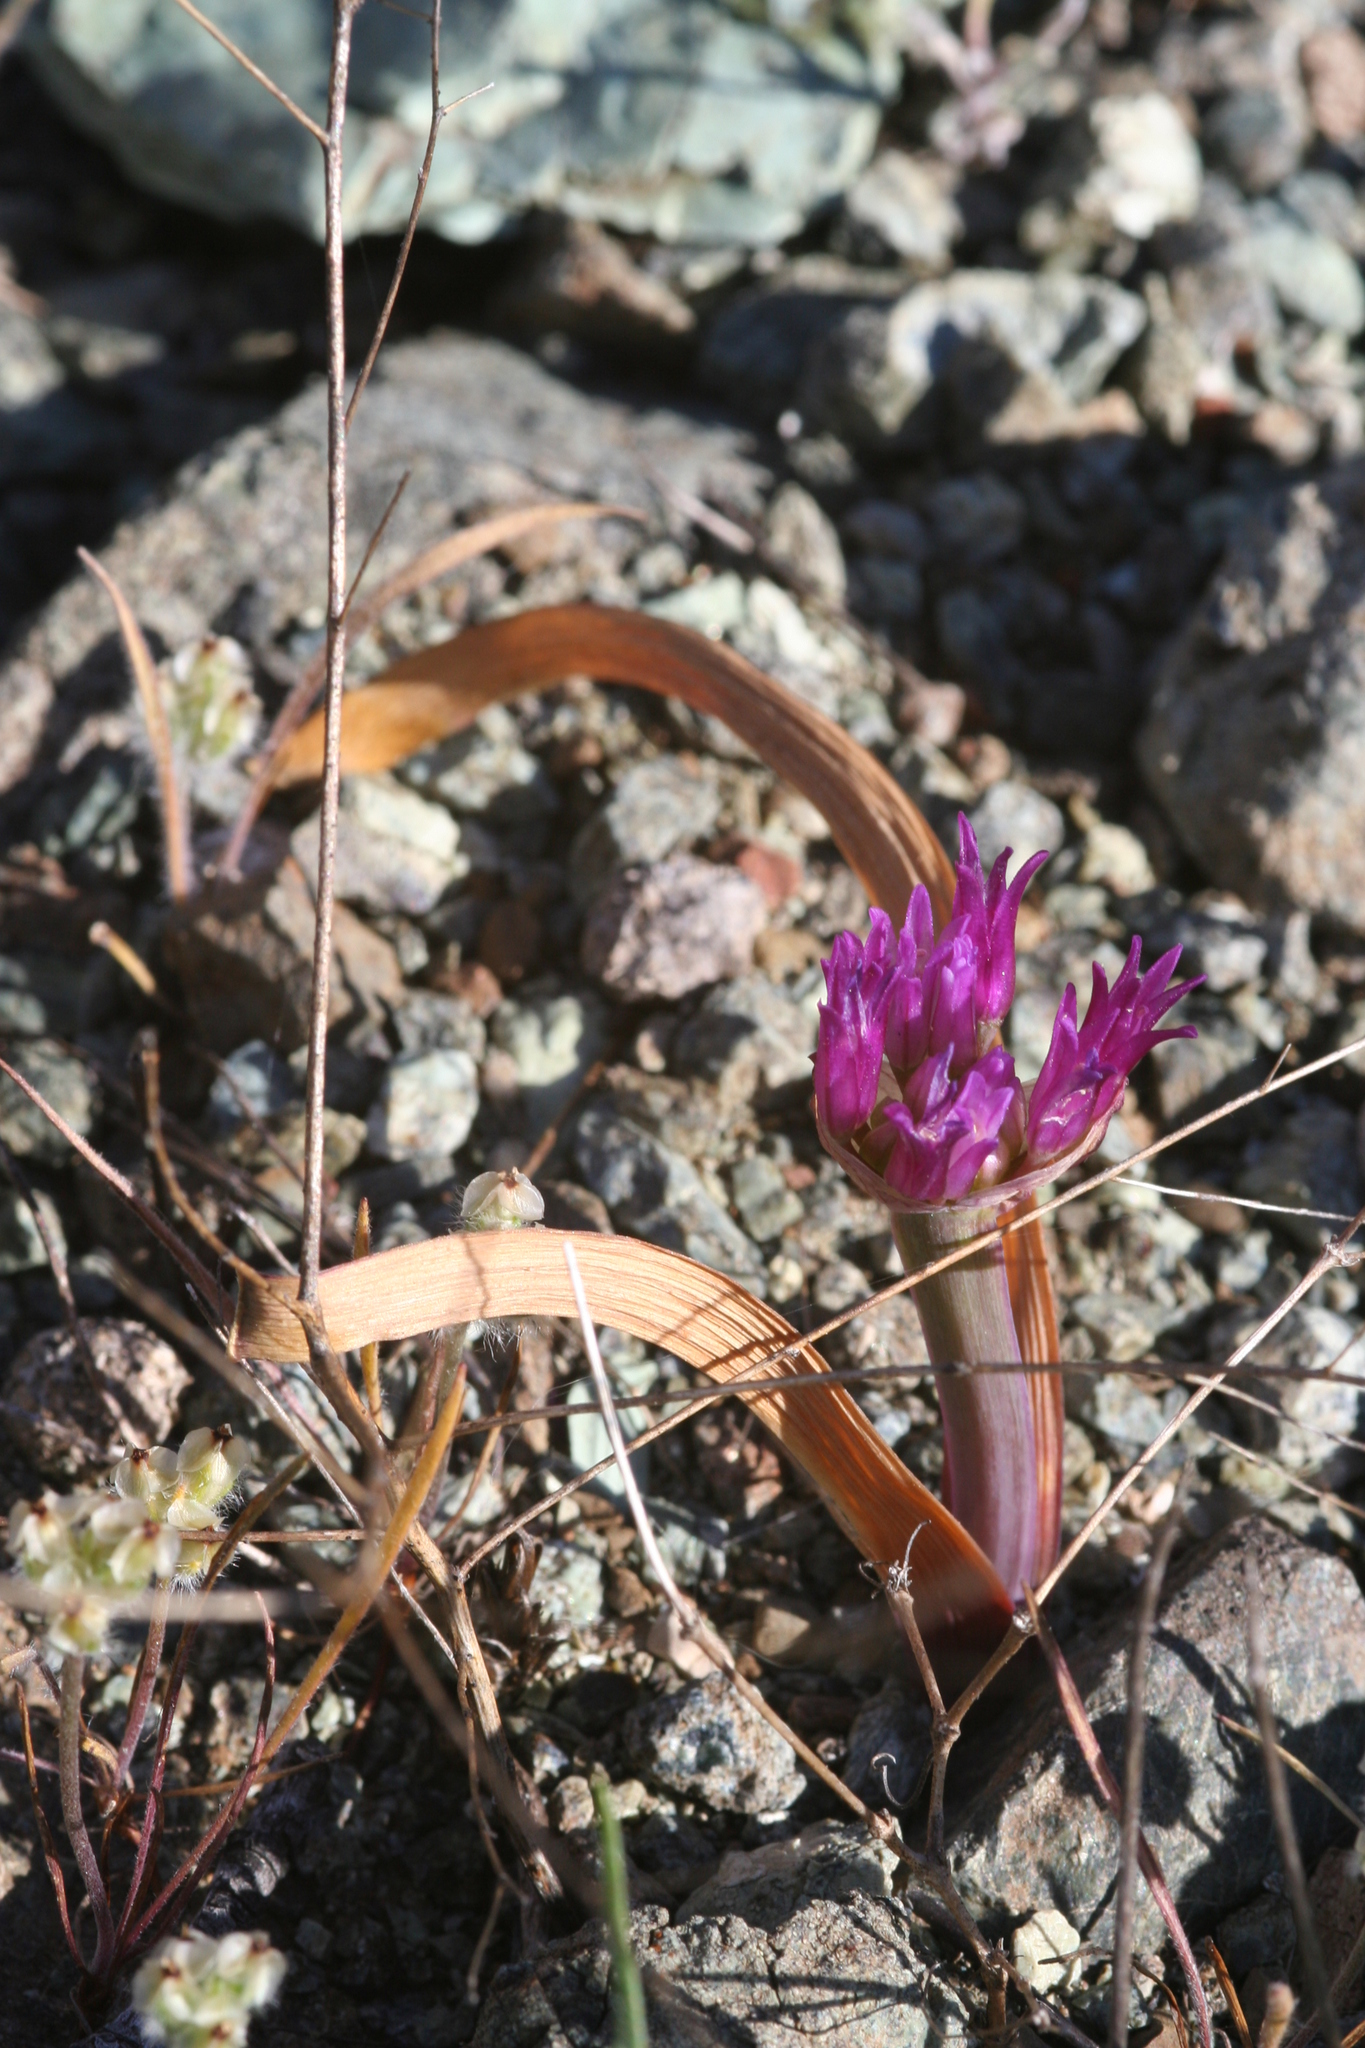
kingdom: Plantae
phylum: Tracheophyta
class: Liliopsida
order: Asparagales
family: Amaryllidaceae
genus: Allium
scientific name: Allium falcifolium
